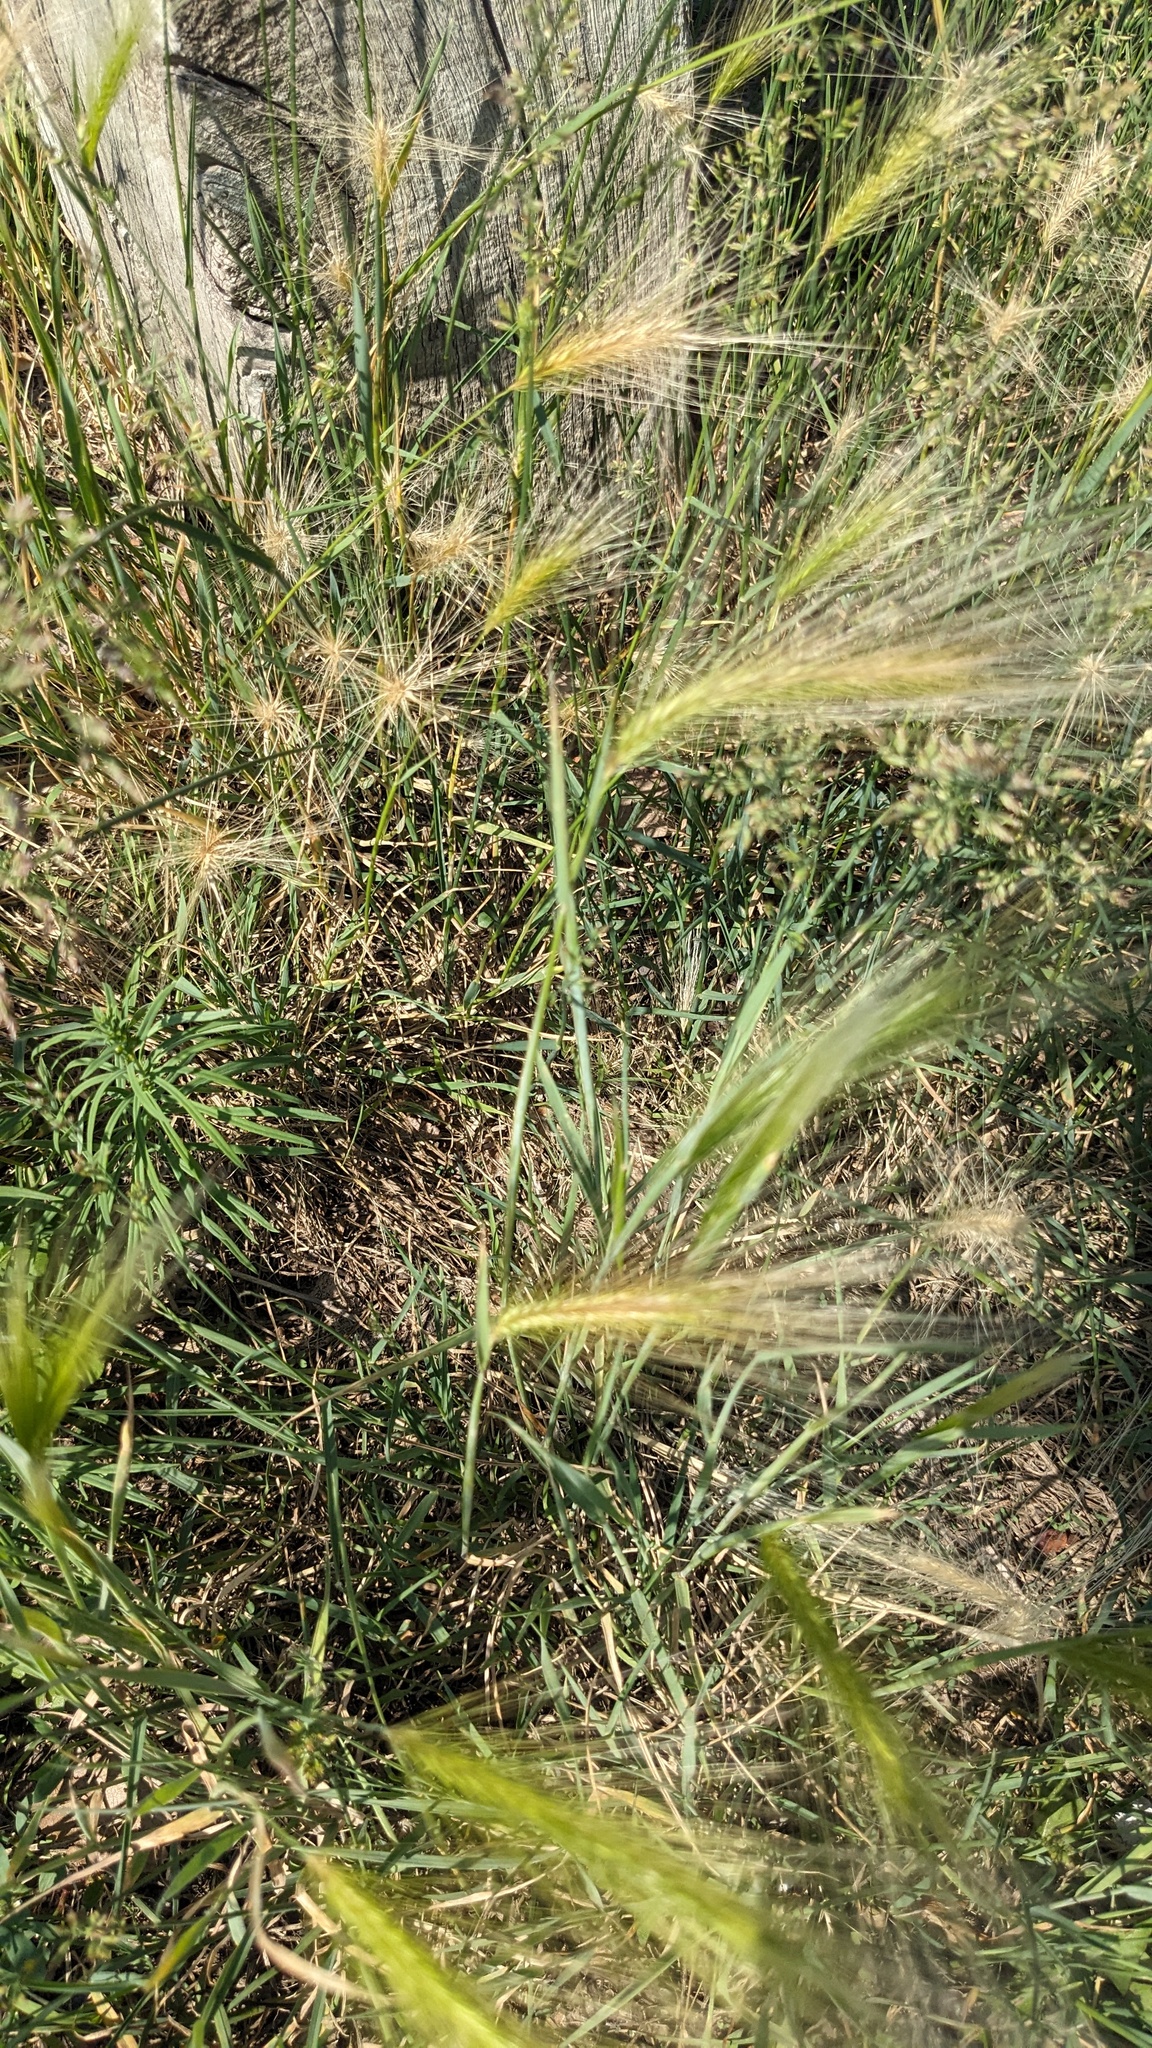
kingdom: Plantae
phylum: Tracheophyta
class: Liliopsida
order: Poales
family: Poaceae
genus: Hordeum
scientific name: Hordeum jubatum
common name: Foxtail barley
